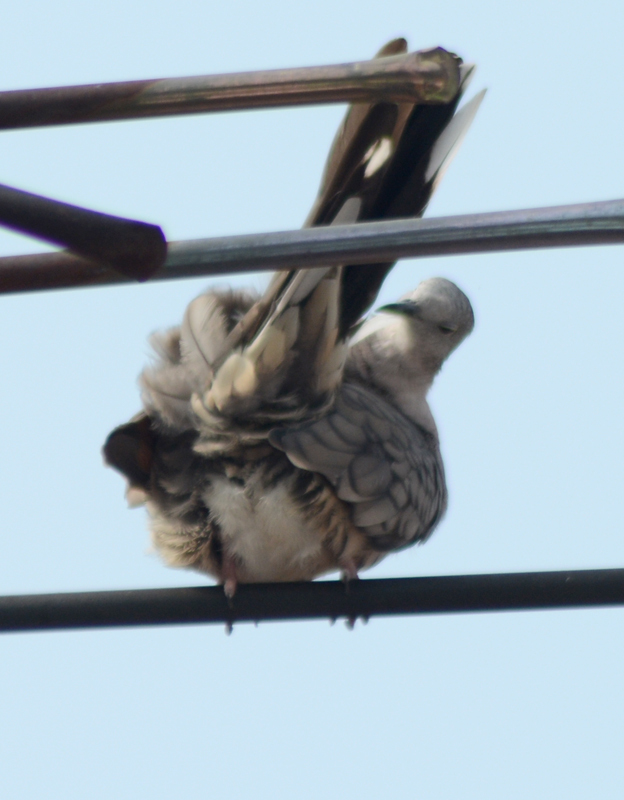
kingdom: Animalia
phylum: Chordata
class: Aves
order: Columbiformes
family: Columbidae
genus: Columbina
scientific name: Columbina inca
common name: Inca dove
